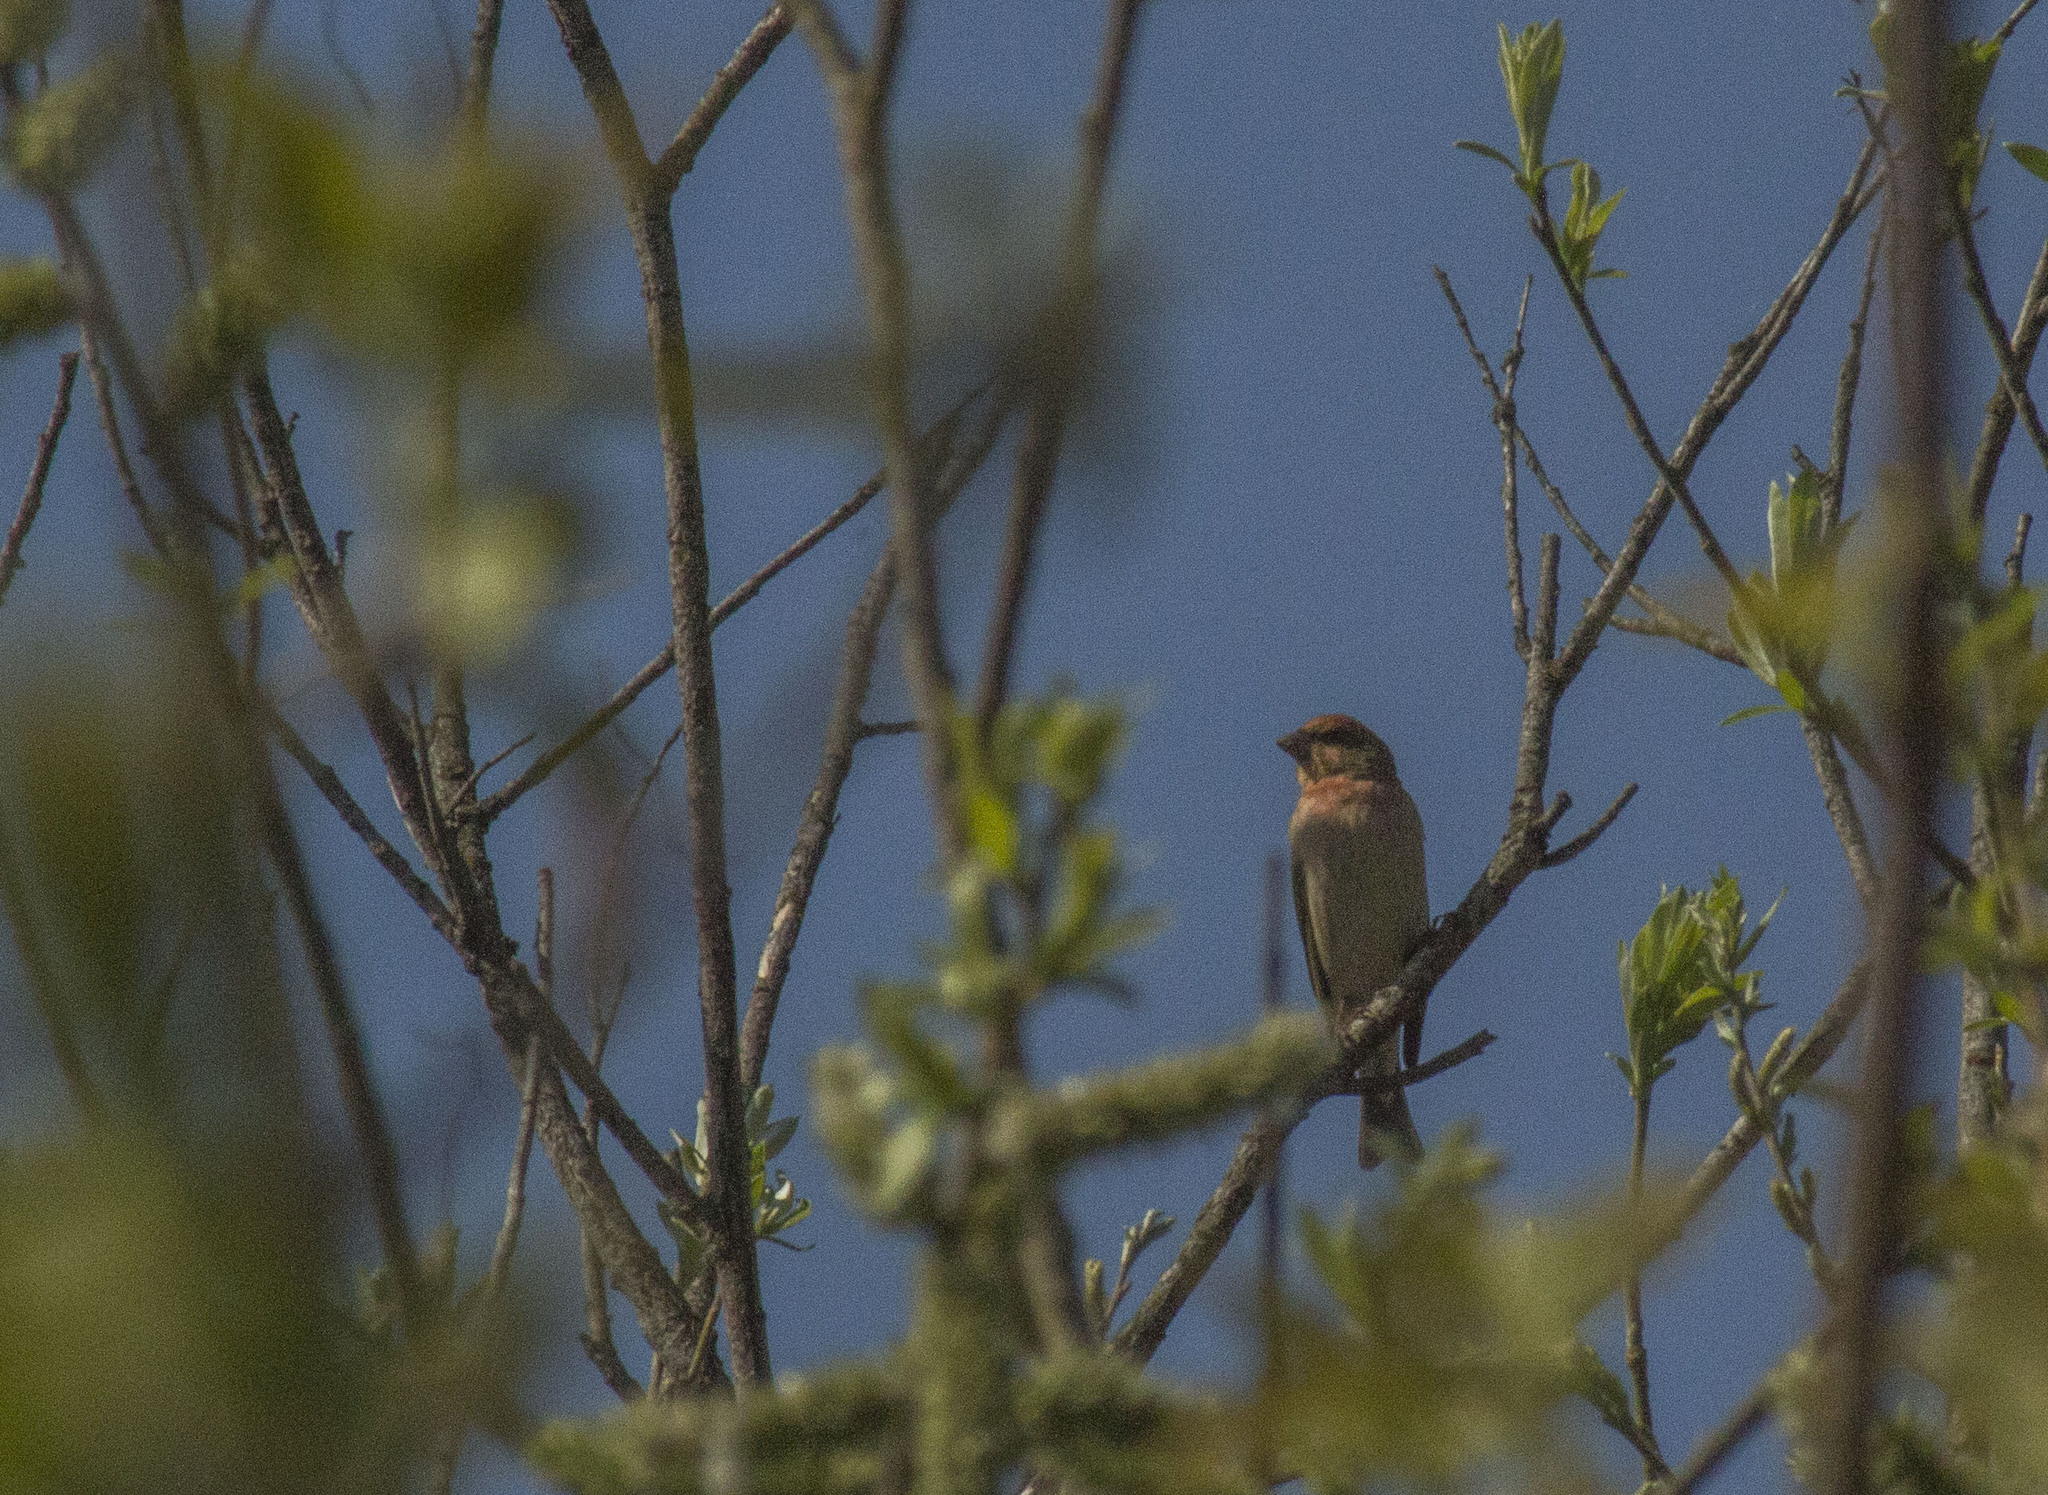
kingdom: Animalia
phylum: Chordata
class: Aves
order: Passeriformes
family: Fringillidae
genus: Carpodacus
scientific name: Carpodacus erythrinus
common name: Common rosefinch
